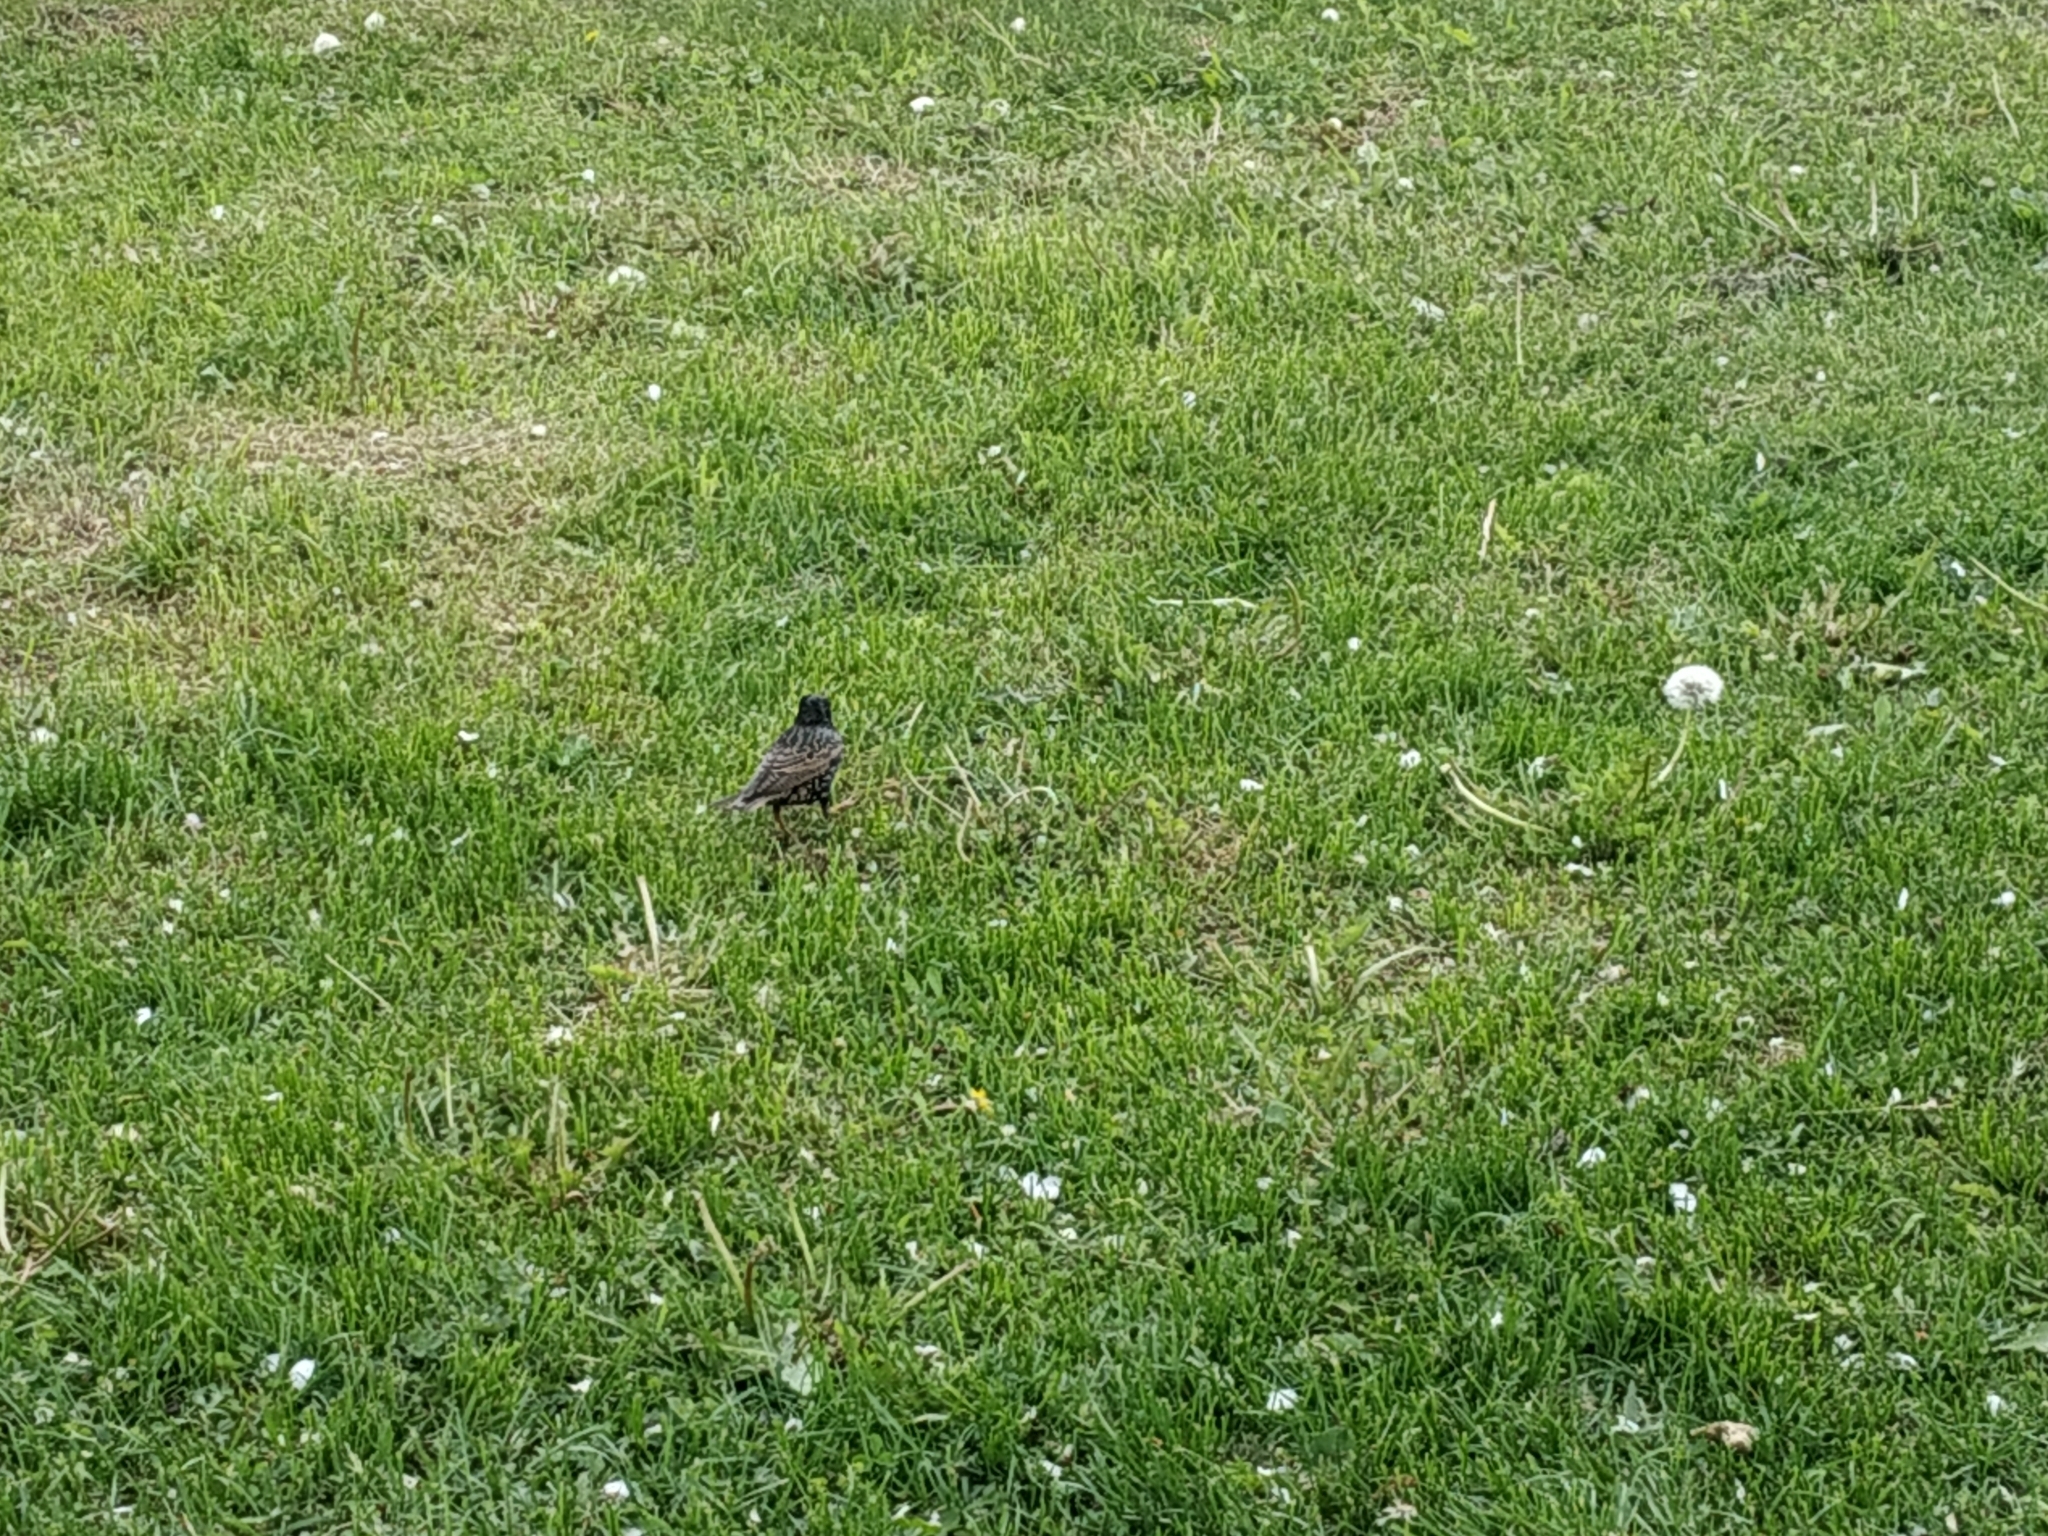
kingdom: Animalia
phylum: Chordata
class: Aves
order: Passeriformes
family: Sturnidae
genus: Sturnus
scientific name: Sturnus vulgaris
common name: Common starling
